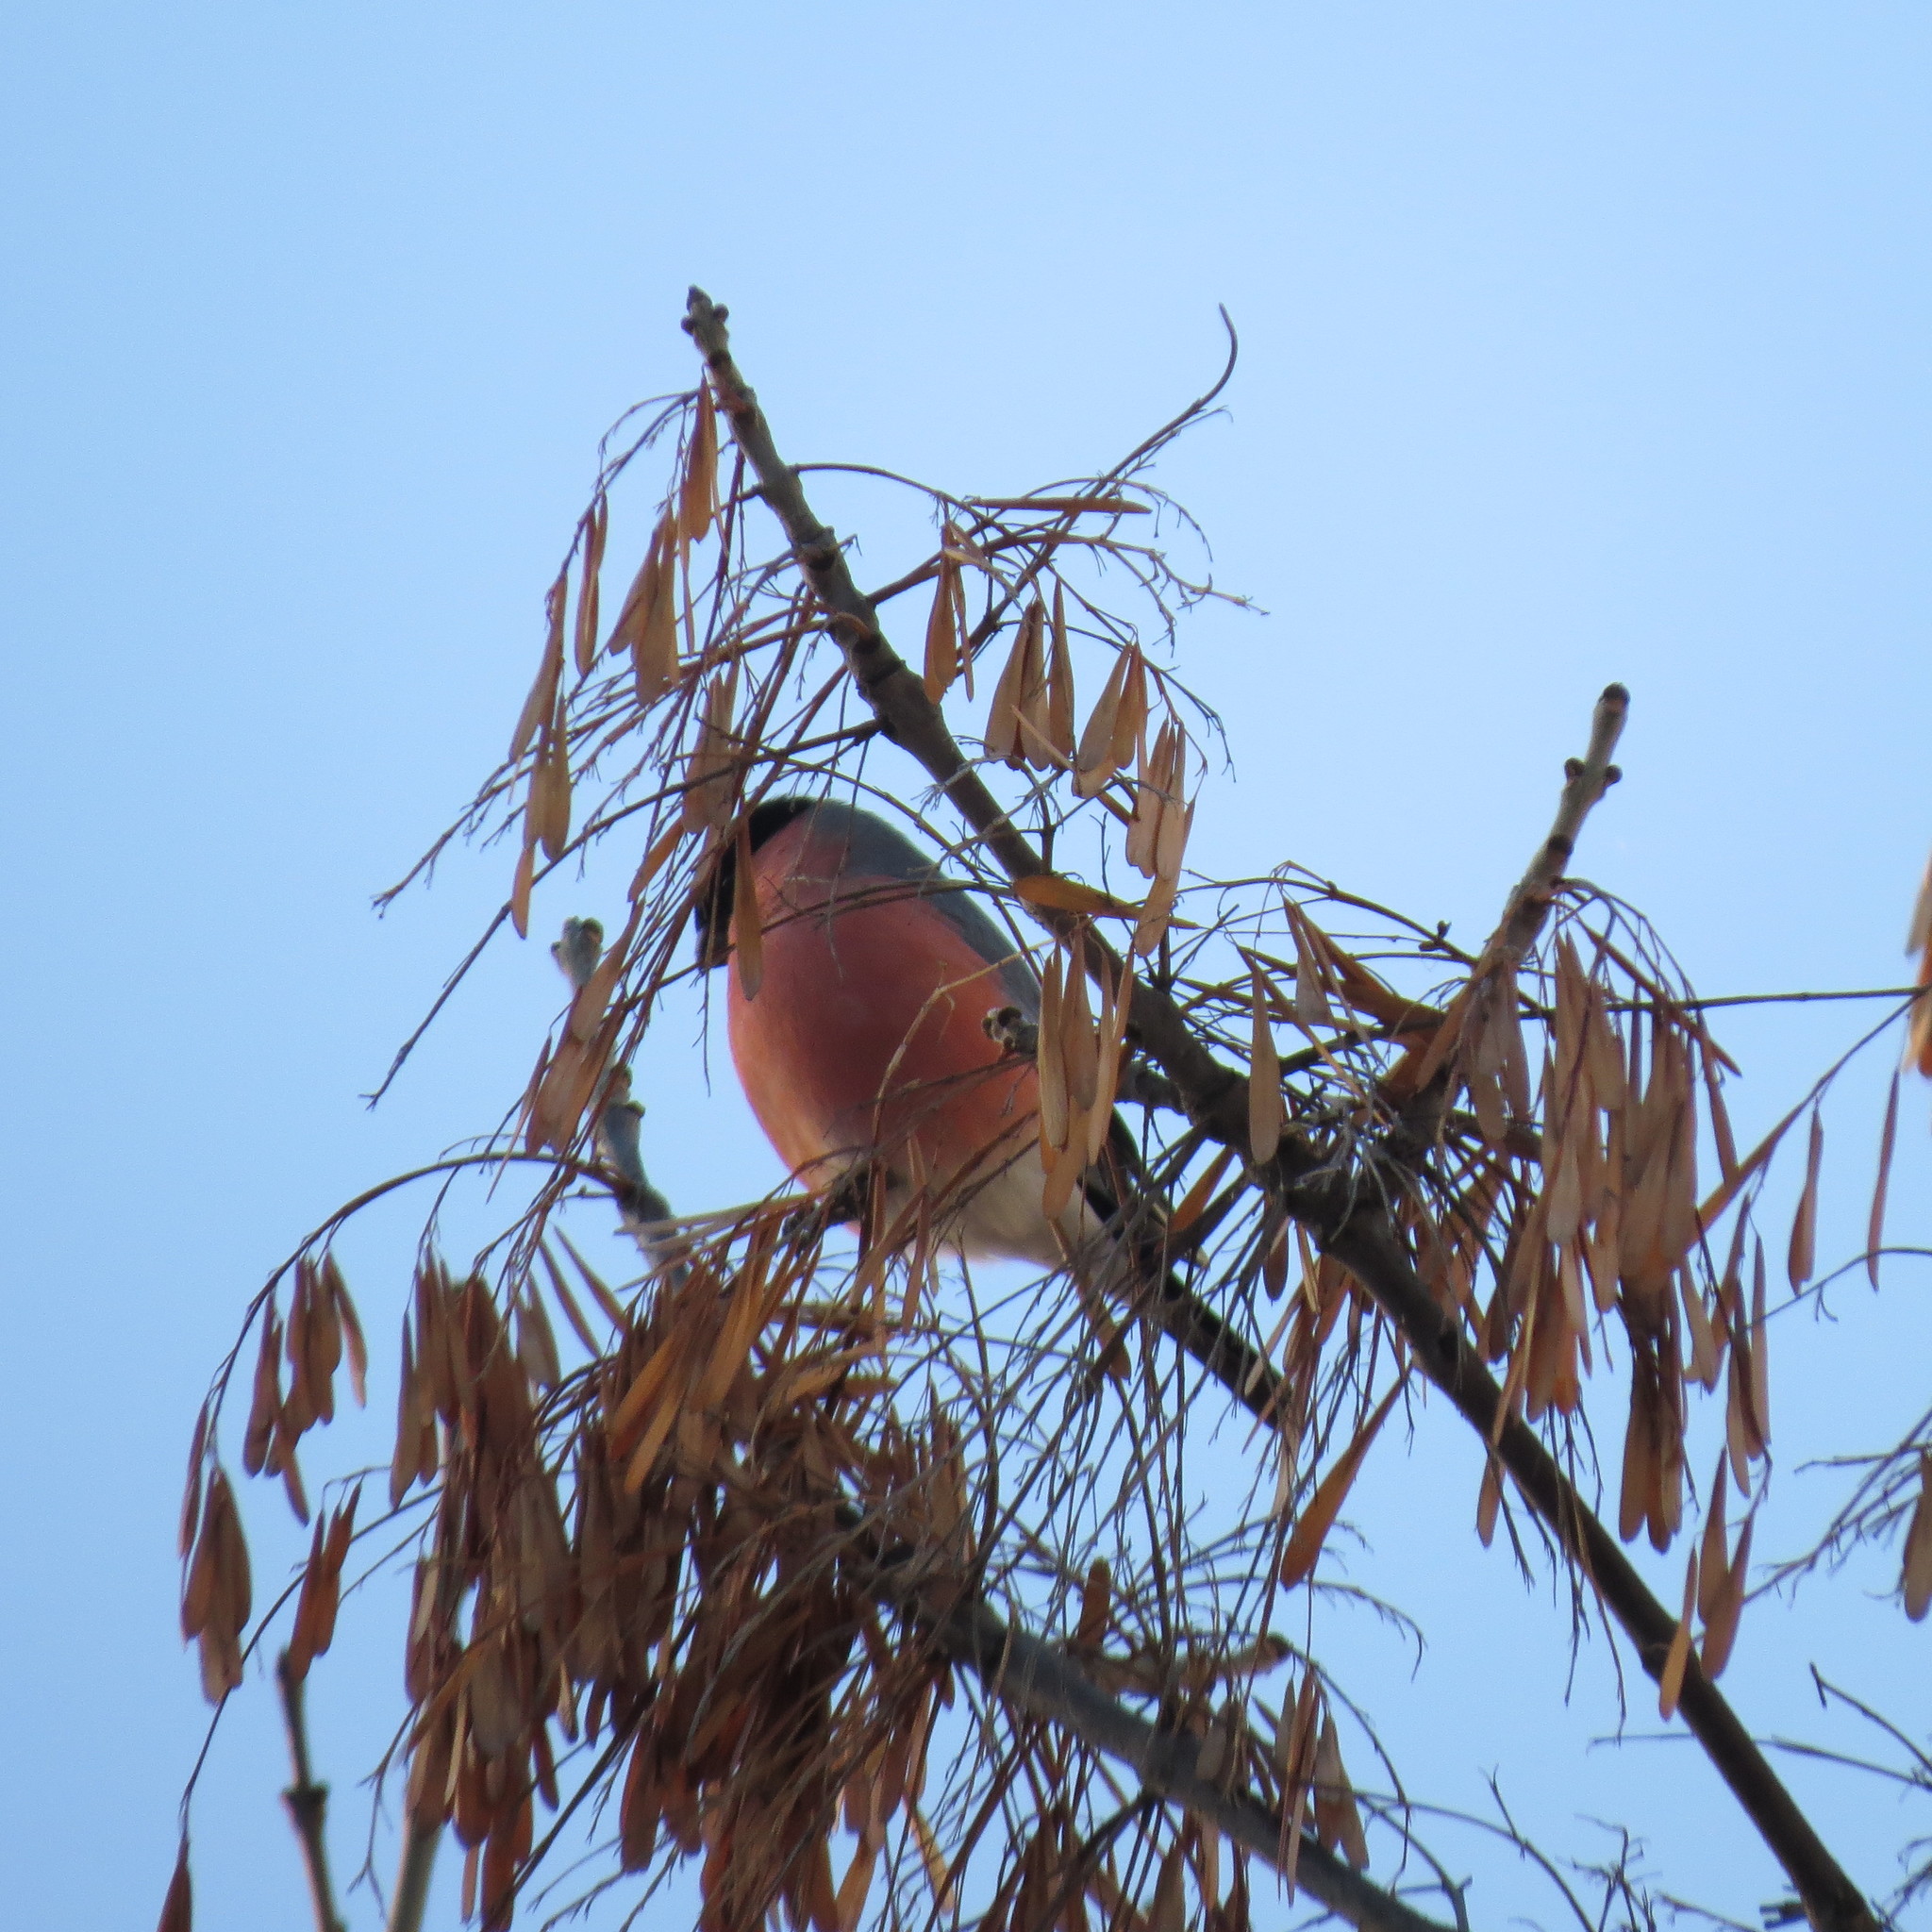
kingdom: Animalia
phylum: Chordata
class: Aves
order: Passeriformes
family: Fringillidae
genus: Pyrrhula
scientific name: Pyrrhula pyrrhula
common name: Eurasian bullfinch
